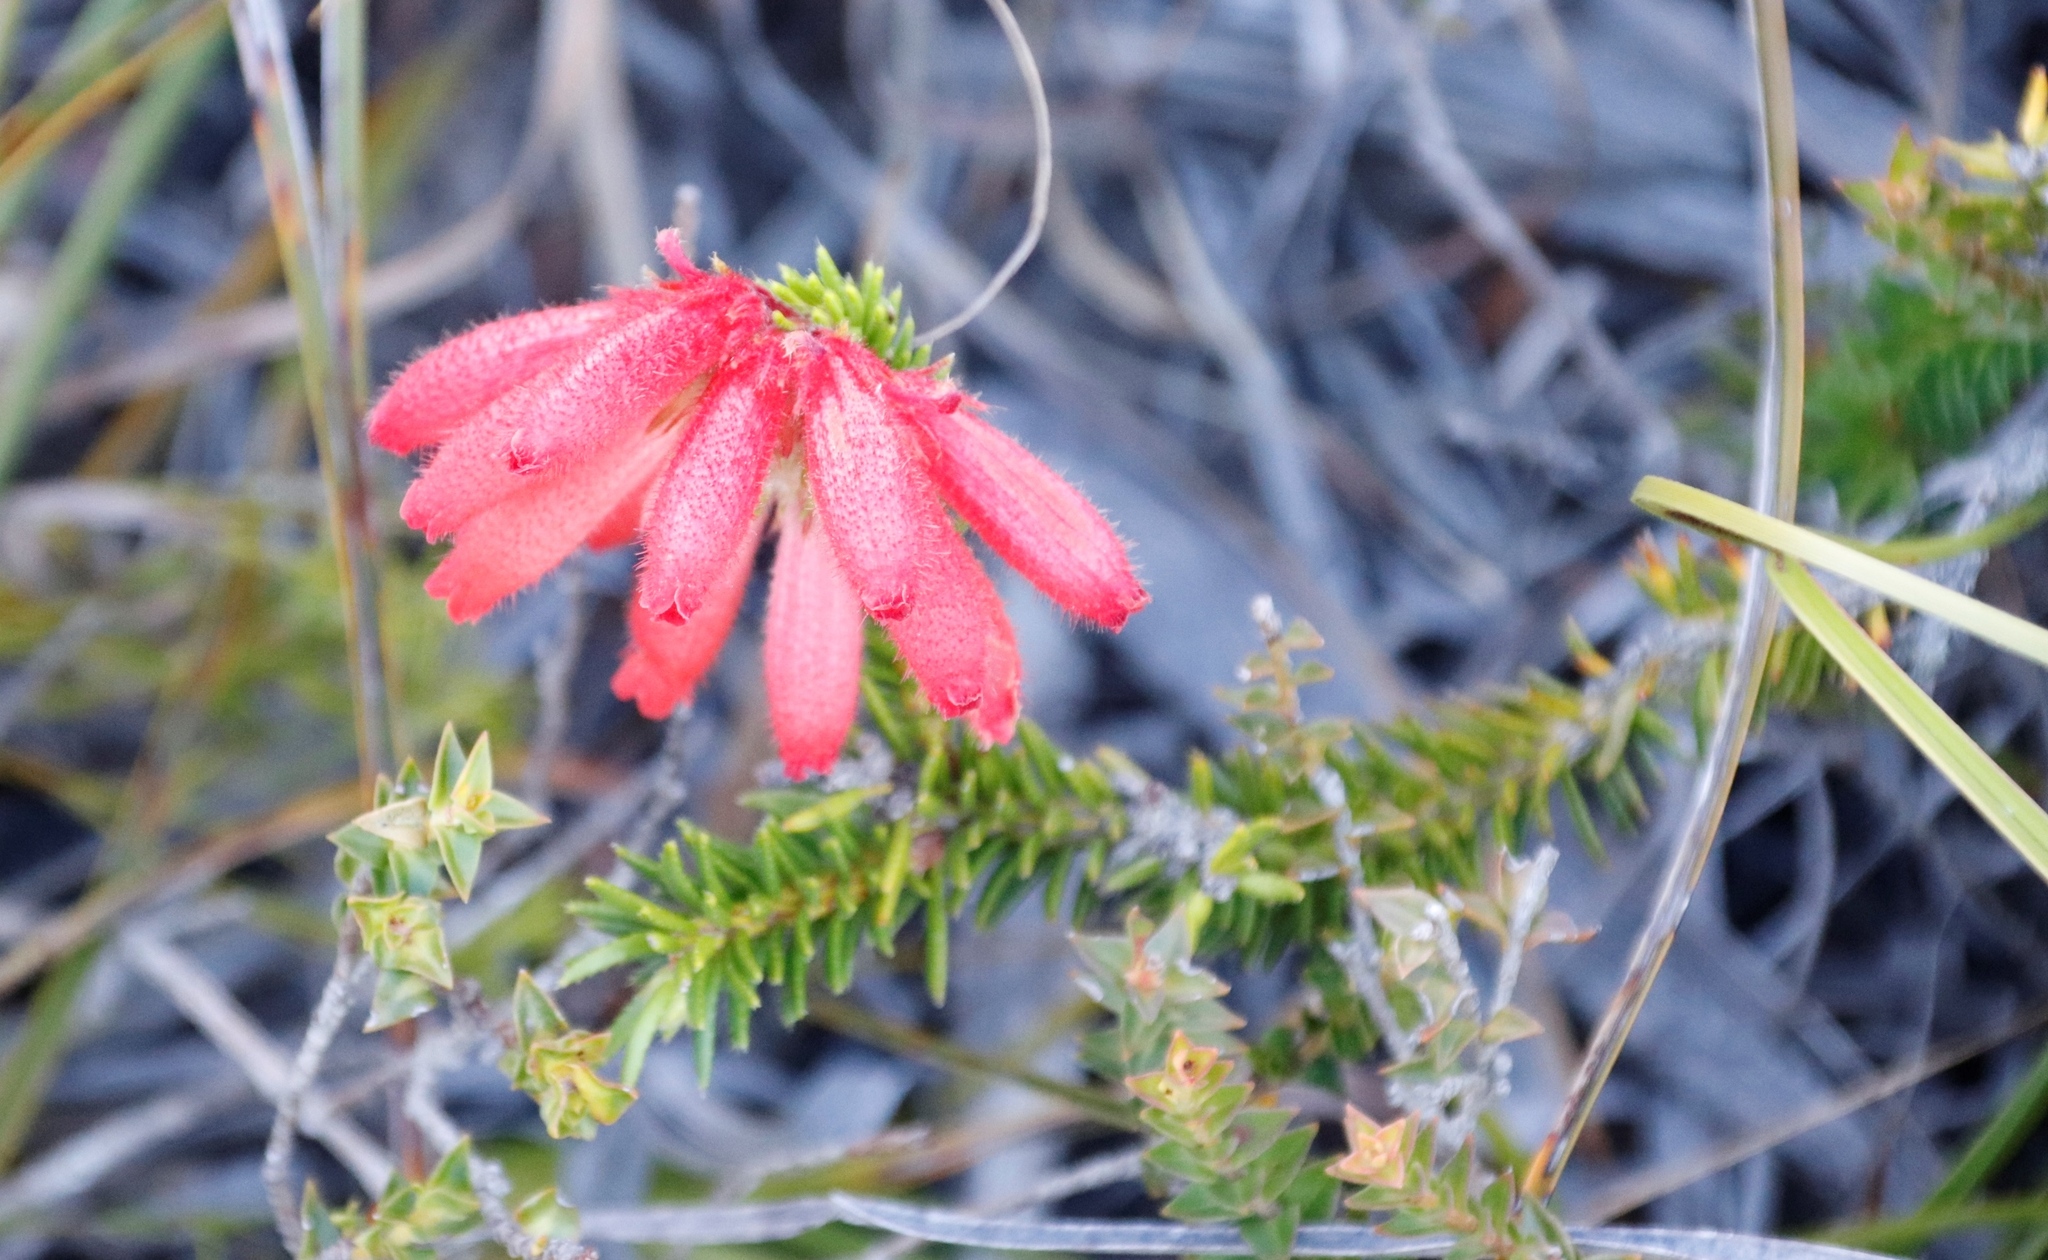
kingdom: Plantae
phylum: Tracheophyta
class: Magnoliopsida
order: Ericales
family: Ericaceae
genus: Erica
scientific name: Erica cerinthoides
